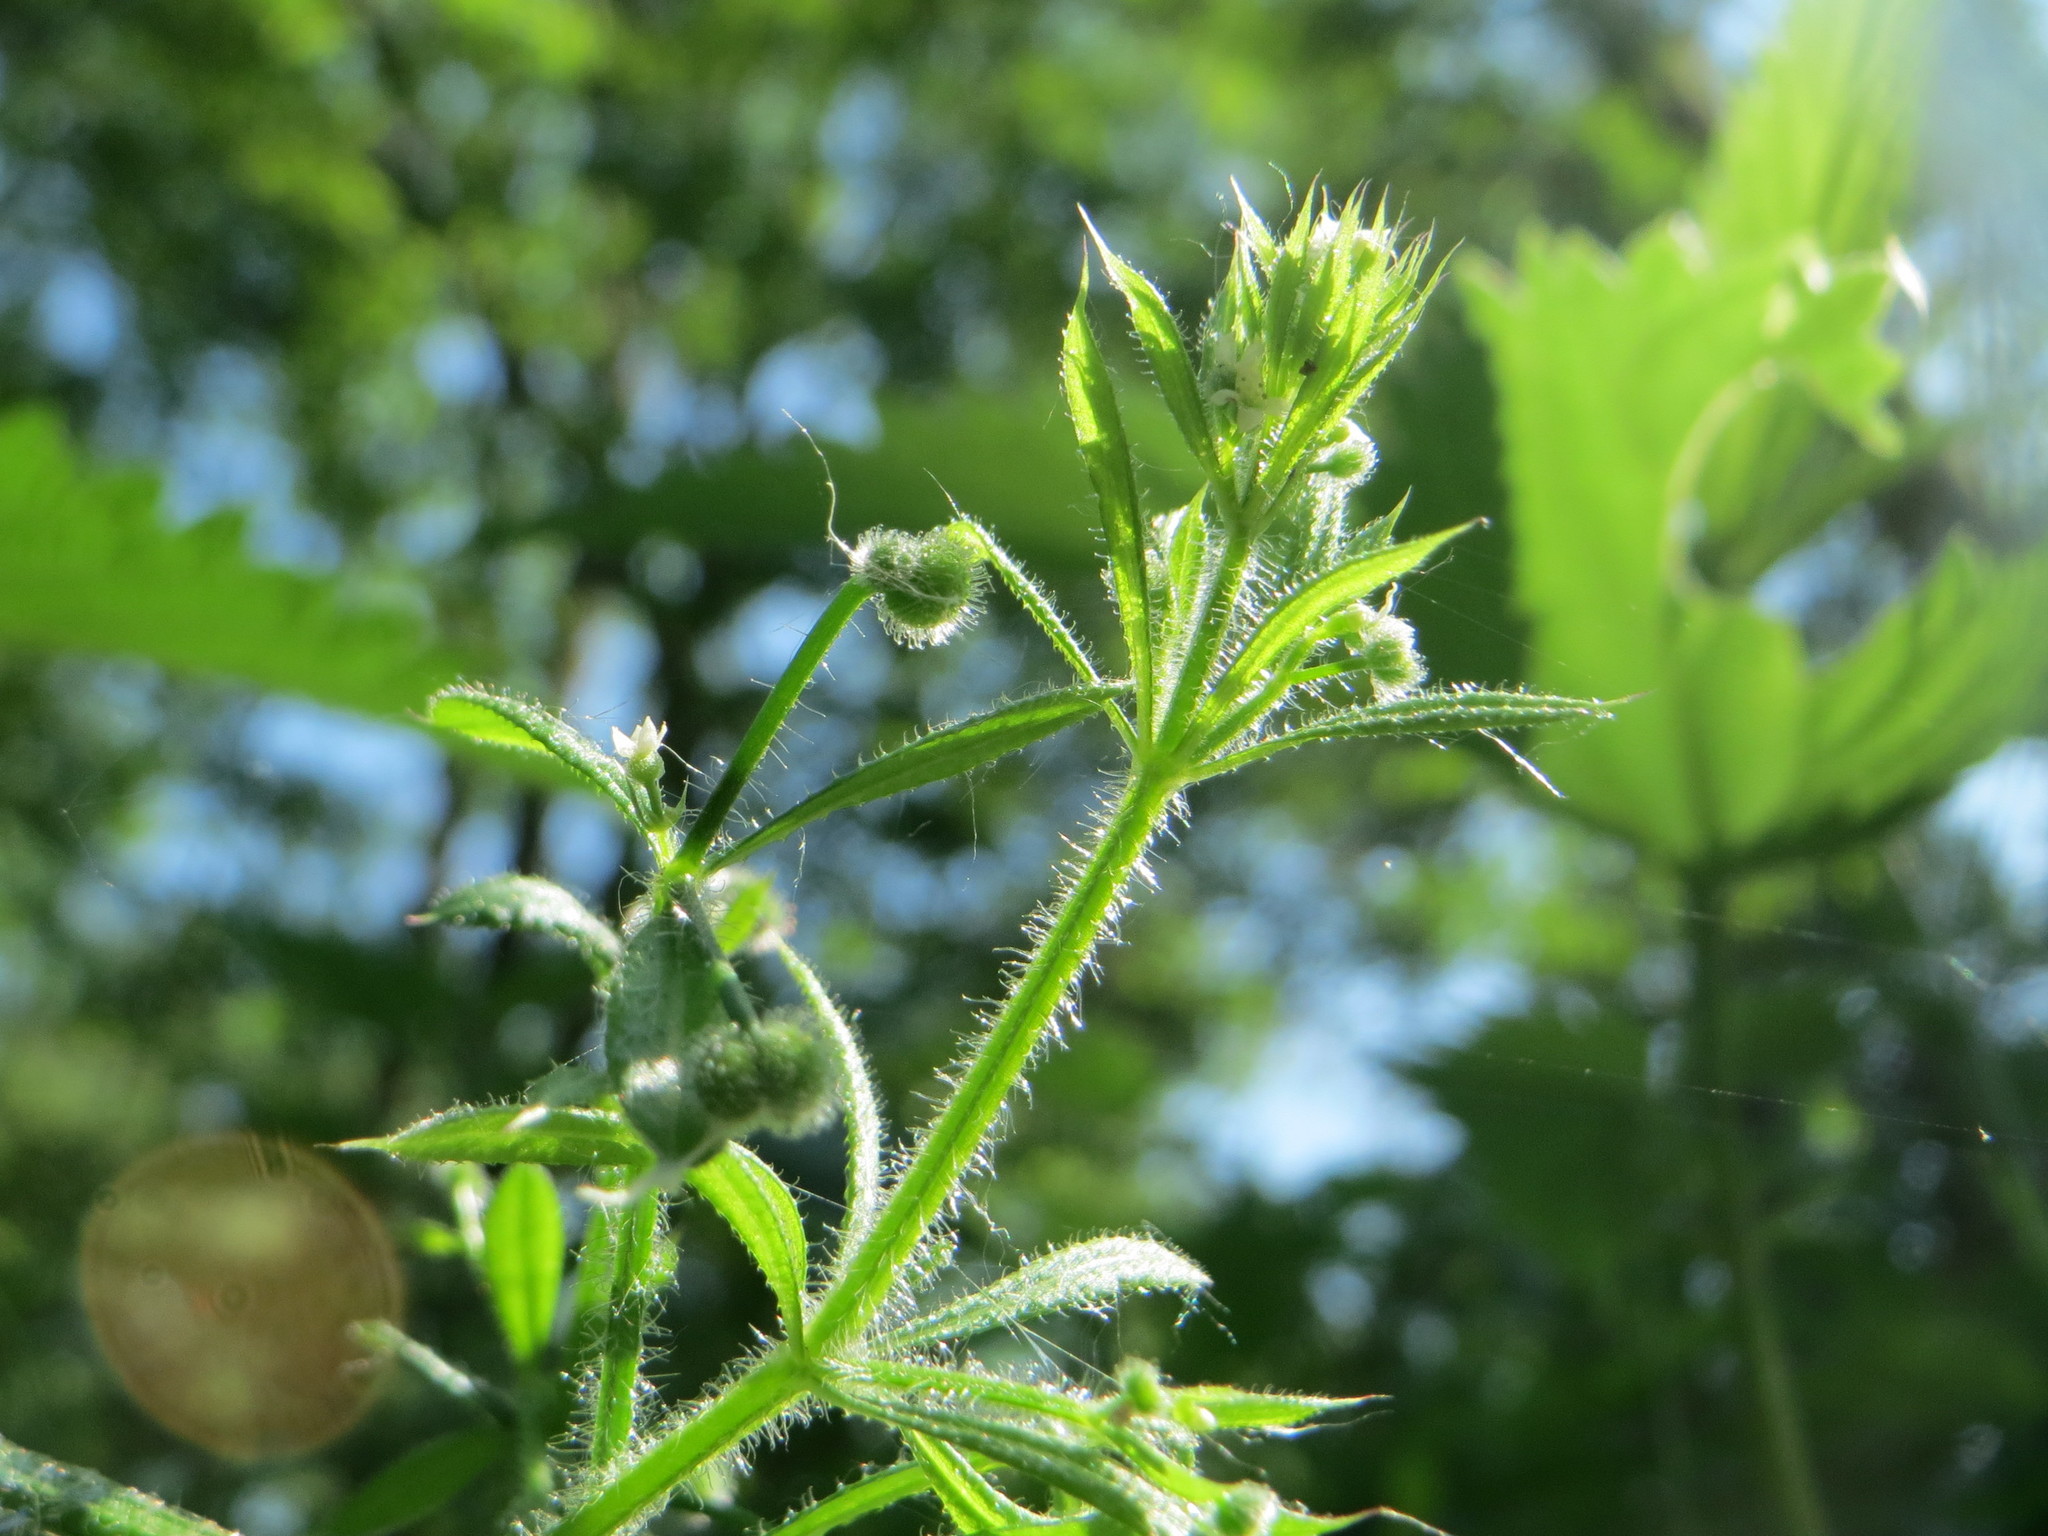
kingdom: Plantae
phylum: Tracheophyta
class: Magnoliopsida
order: Gentianales
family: Rubiaceae
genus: Galium
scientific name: Galium aparine
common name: Cleavers
